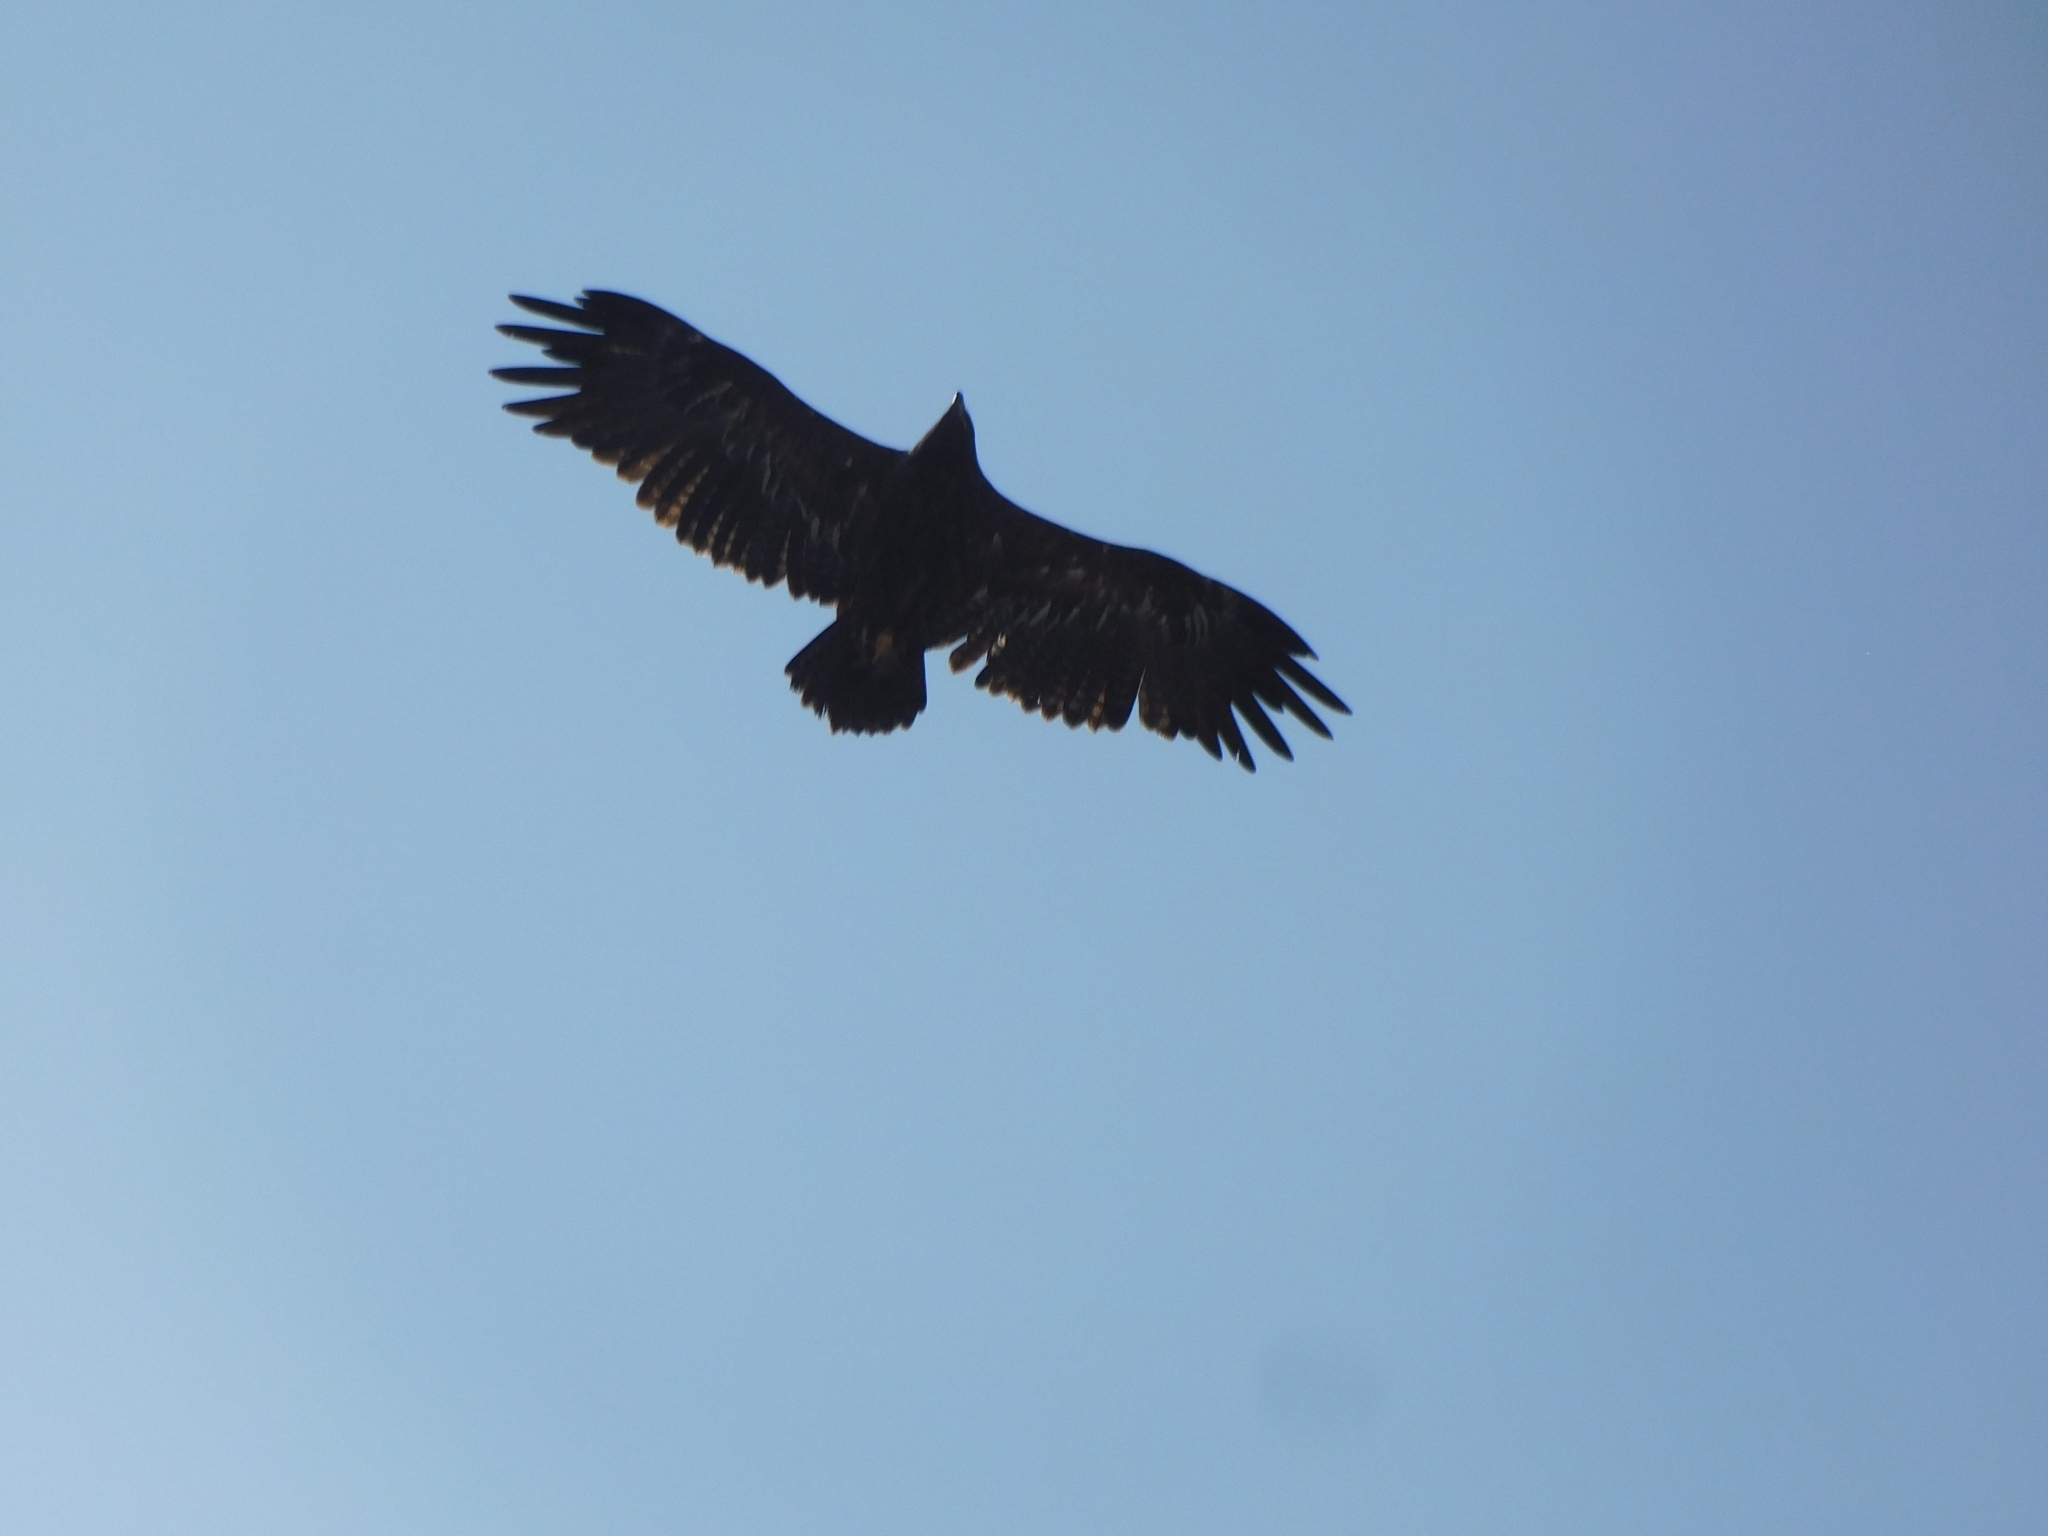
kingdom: Animalia
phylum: Chordata
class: Aves
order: Accipitriformes
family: Accipitridae
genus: Aquila
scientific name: Aquila nipalensis
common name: Steppe eagle
